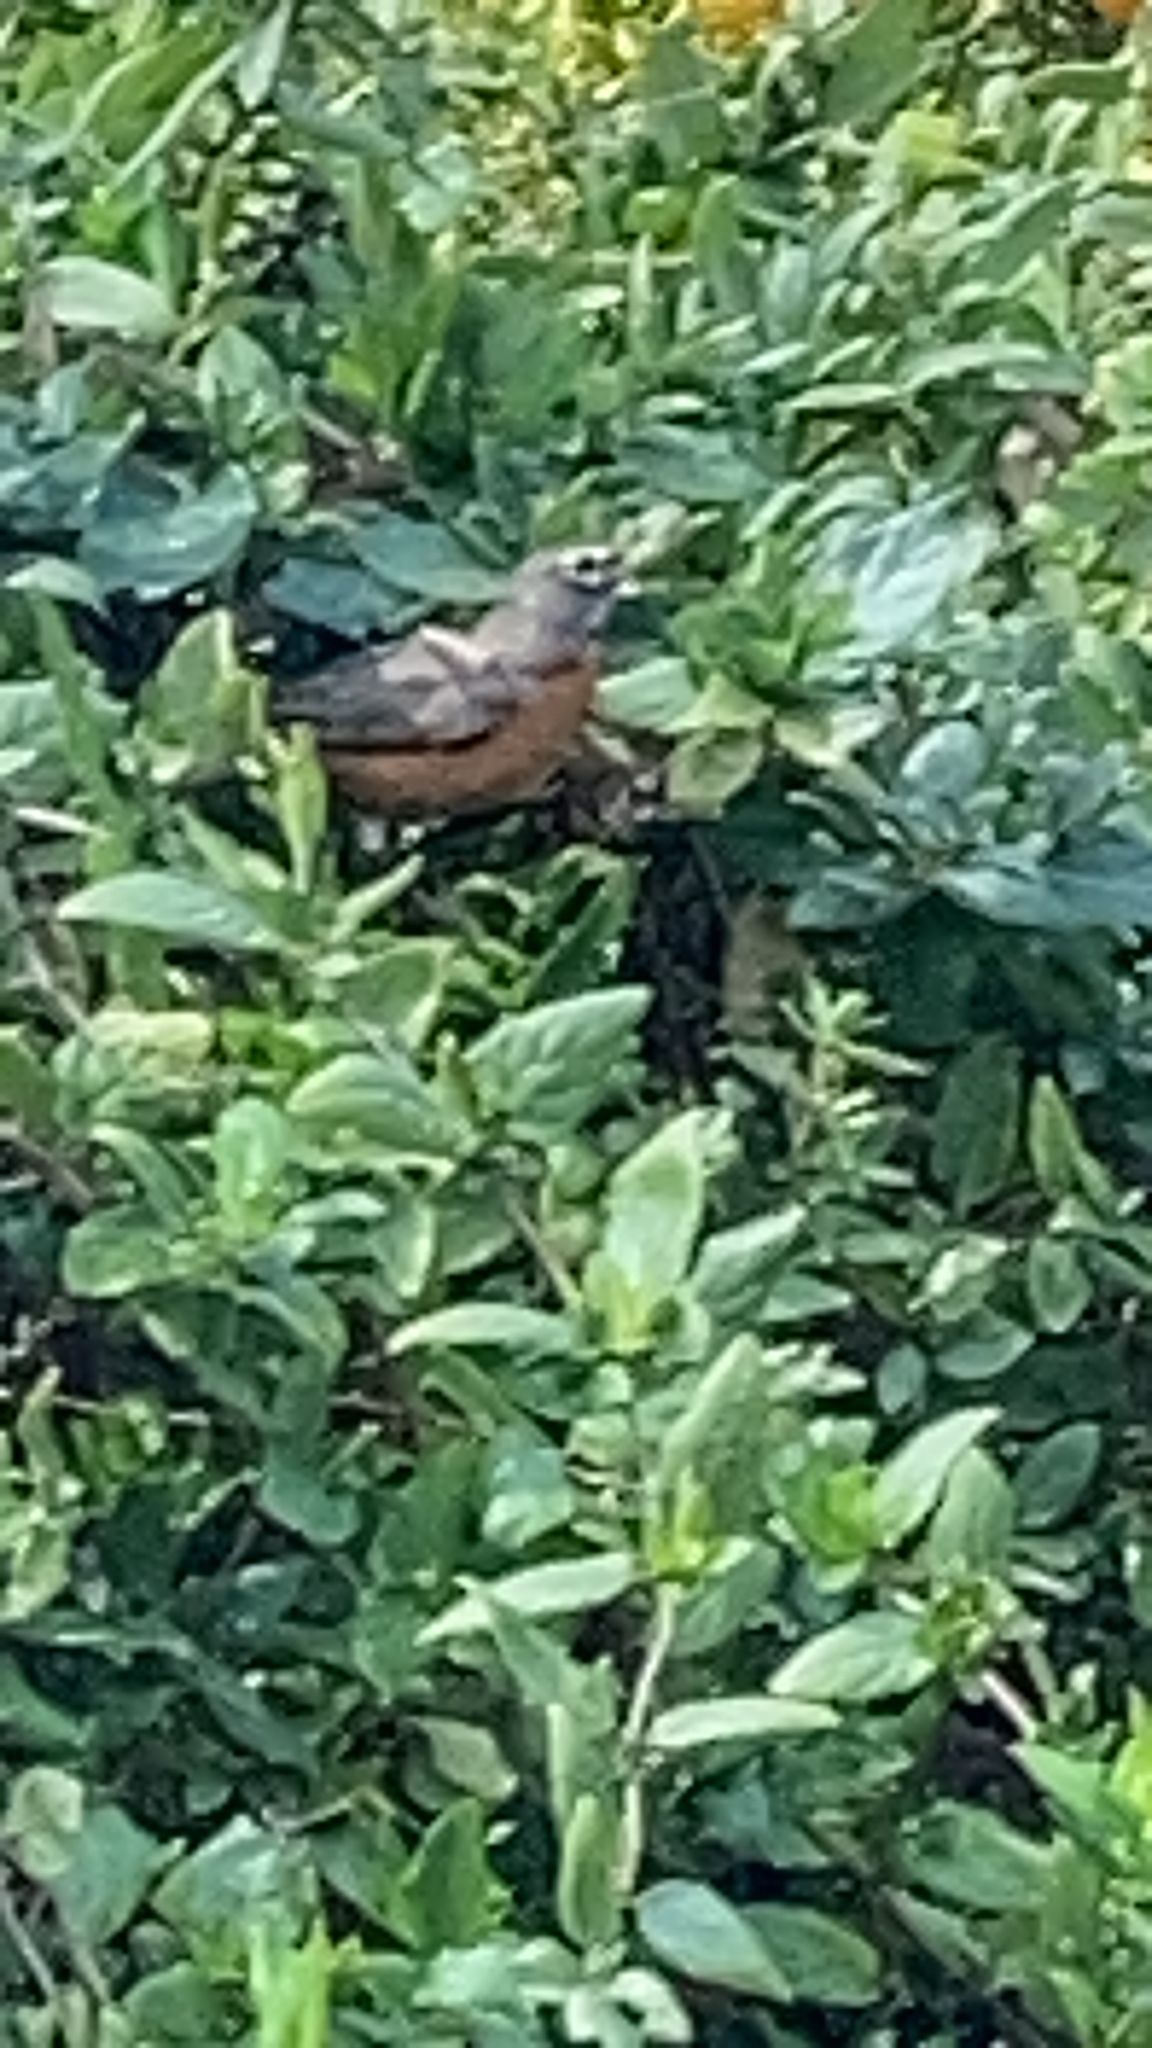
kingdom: Animalia
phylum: Chordata
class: Aves
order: Passeriformes
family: Turdidae
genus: Turdus
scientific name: Turdus migratorius
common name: American robin
